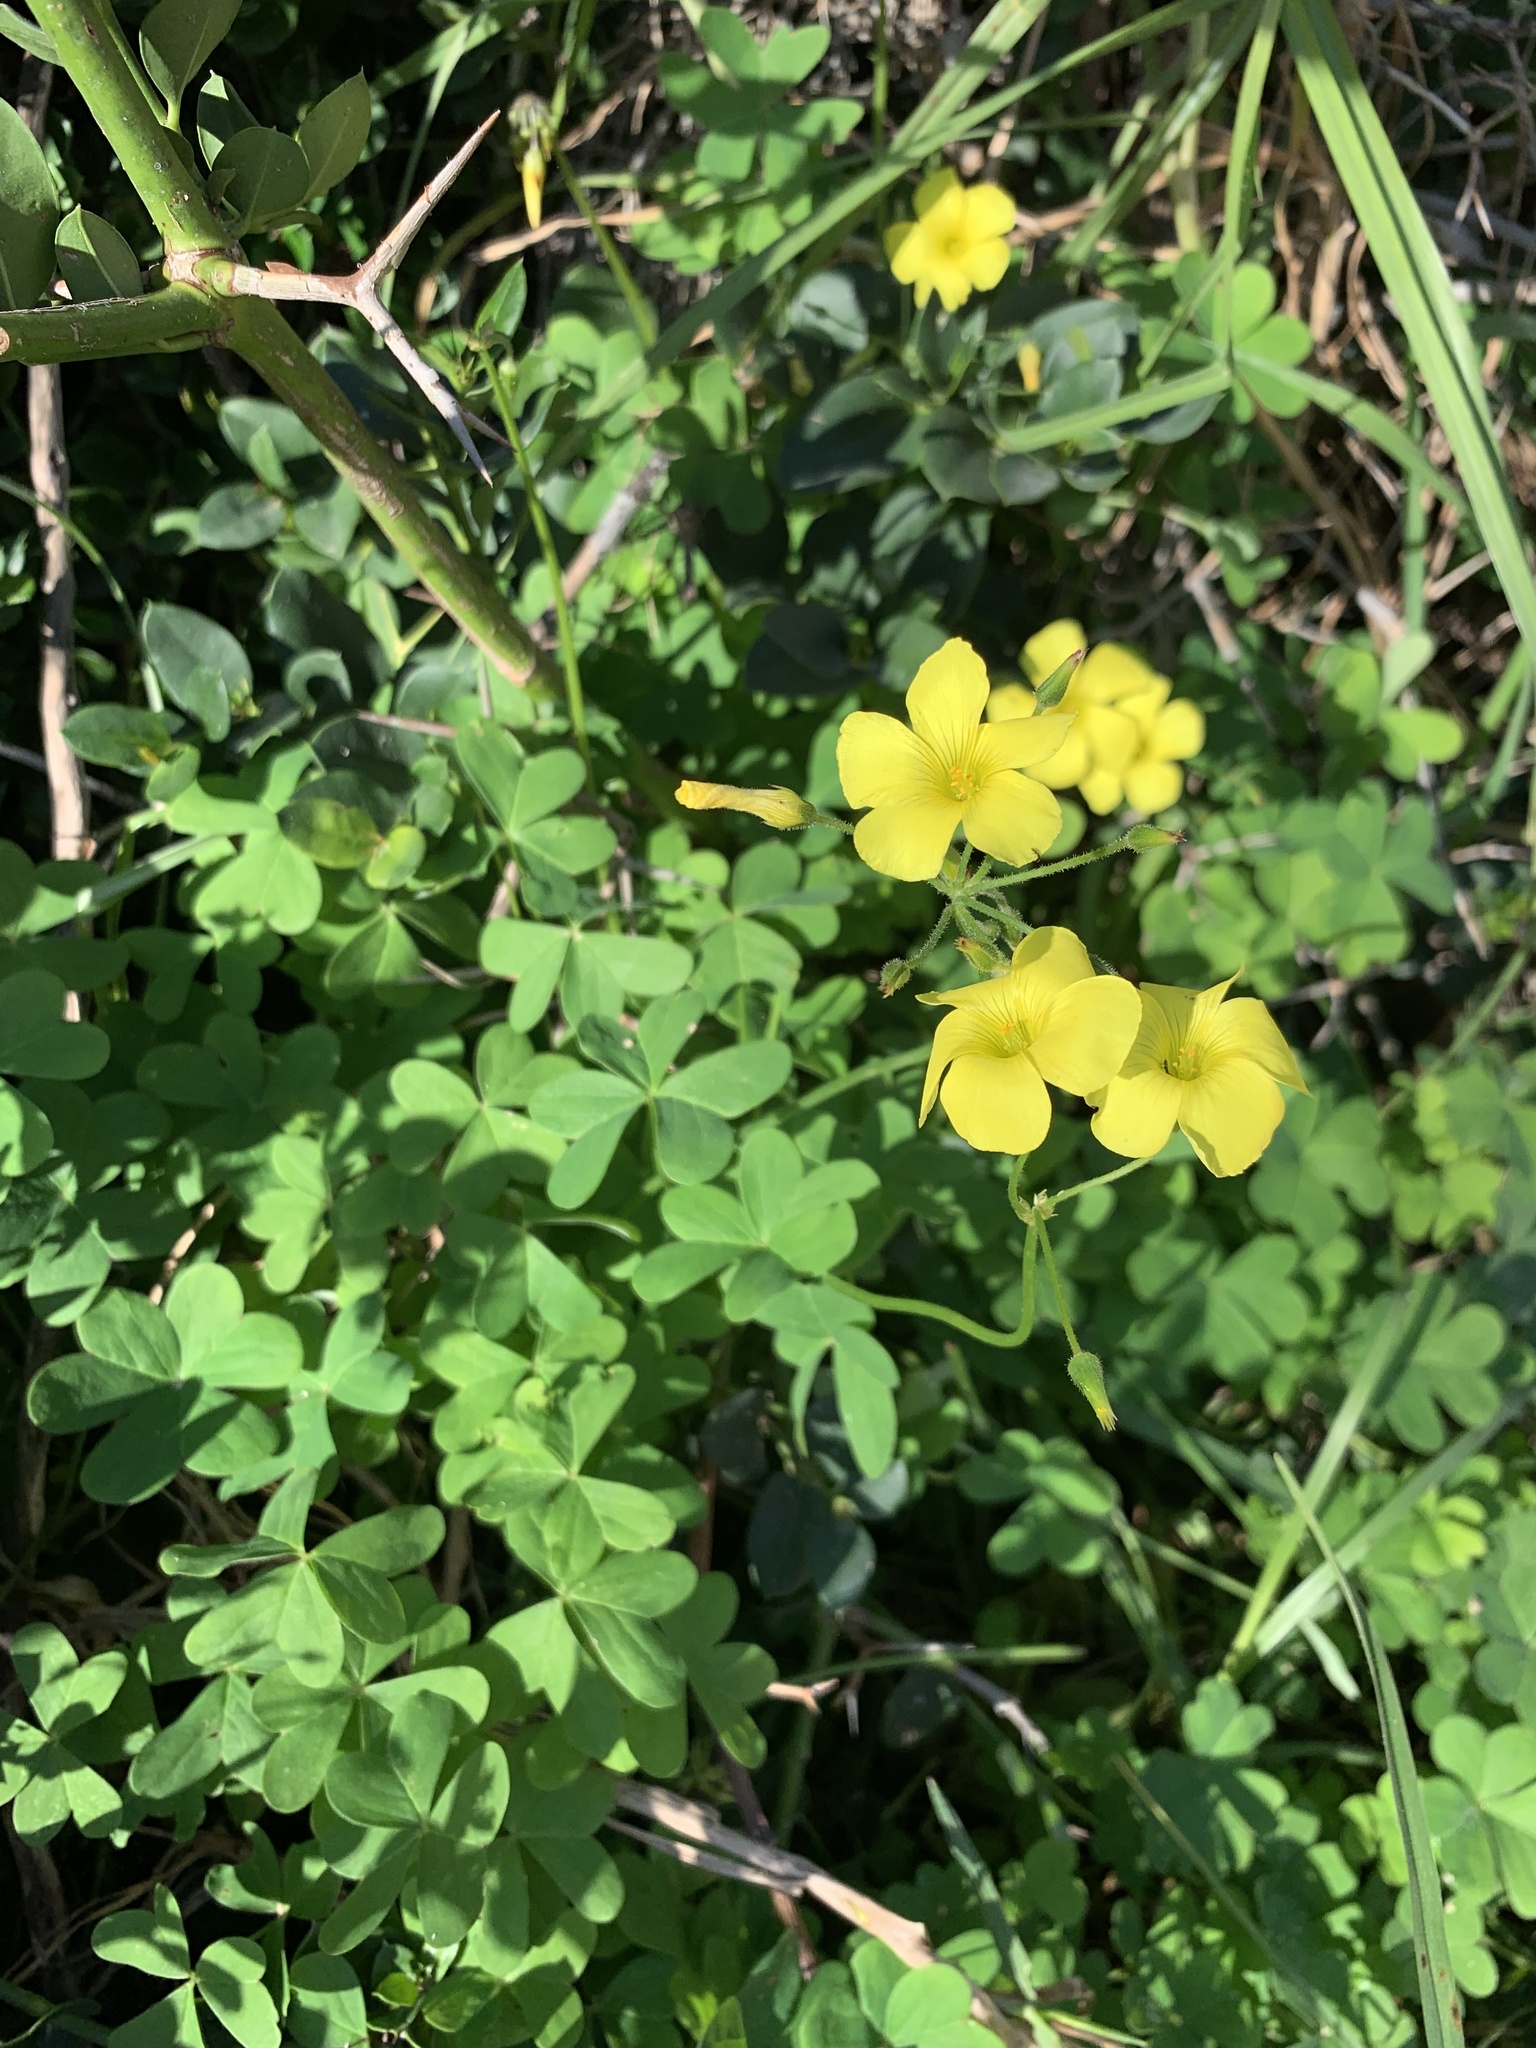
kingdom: Plantae
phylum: Tracheophyta
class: Magnoliopsida
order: Oxalidales
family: Oxalidaceae
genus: Oxalis
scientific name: Oxalis pes-caprae
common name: Bermuda-buttercup
